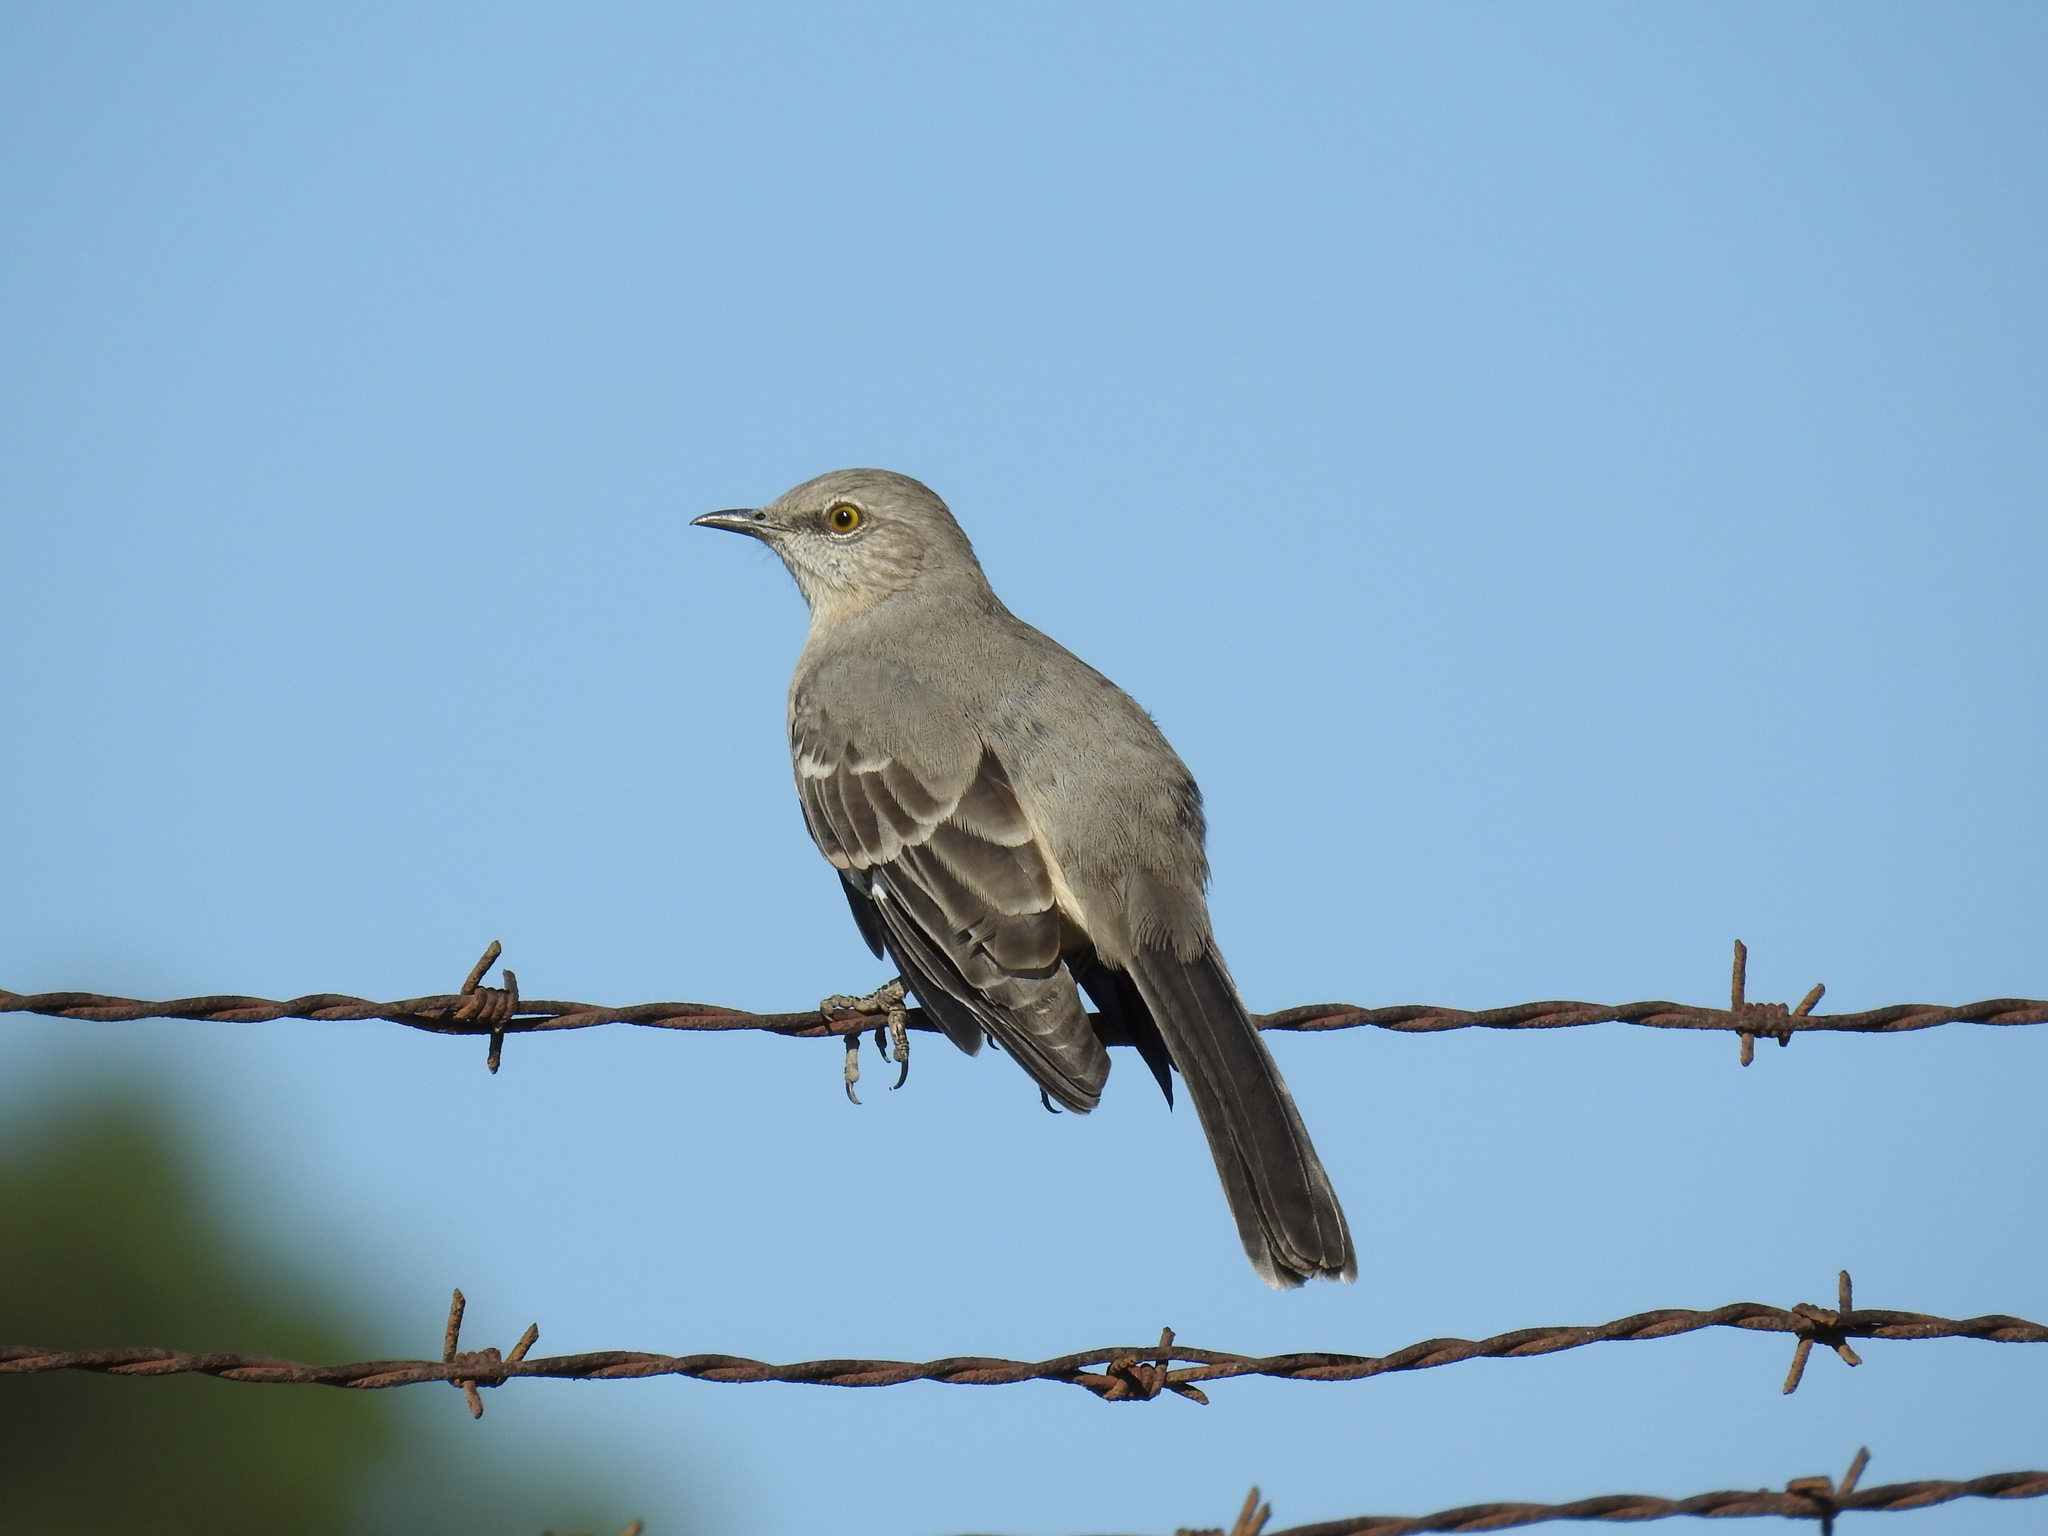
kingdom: Animalia
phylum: Chordata
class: Aves
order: Passeriformes
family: Mimidae
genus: Mimus
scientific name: Mimus polyglottos
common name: Northern mockingbird
